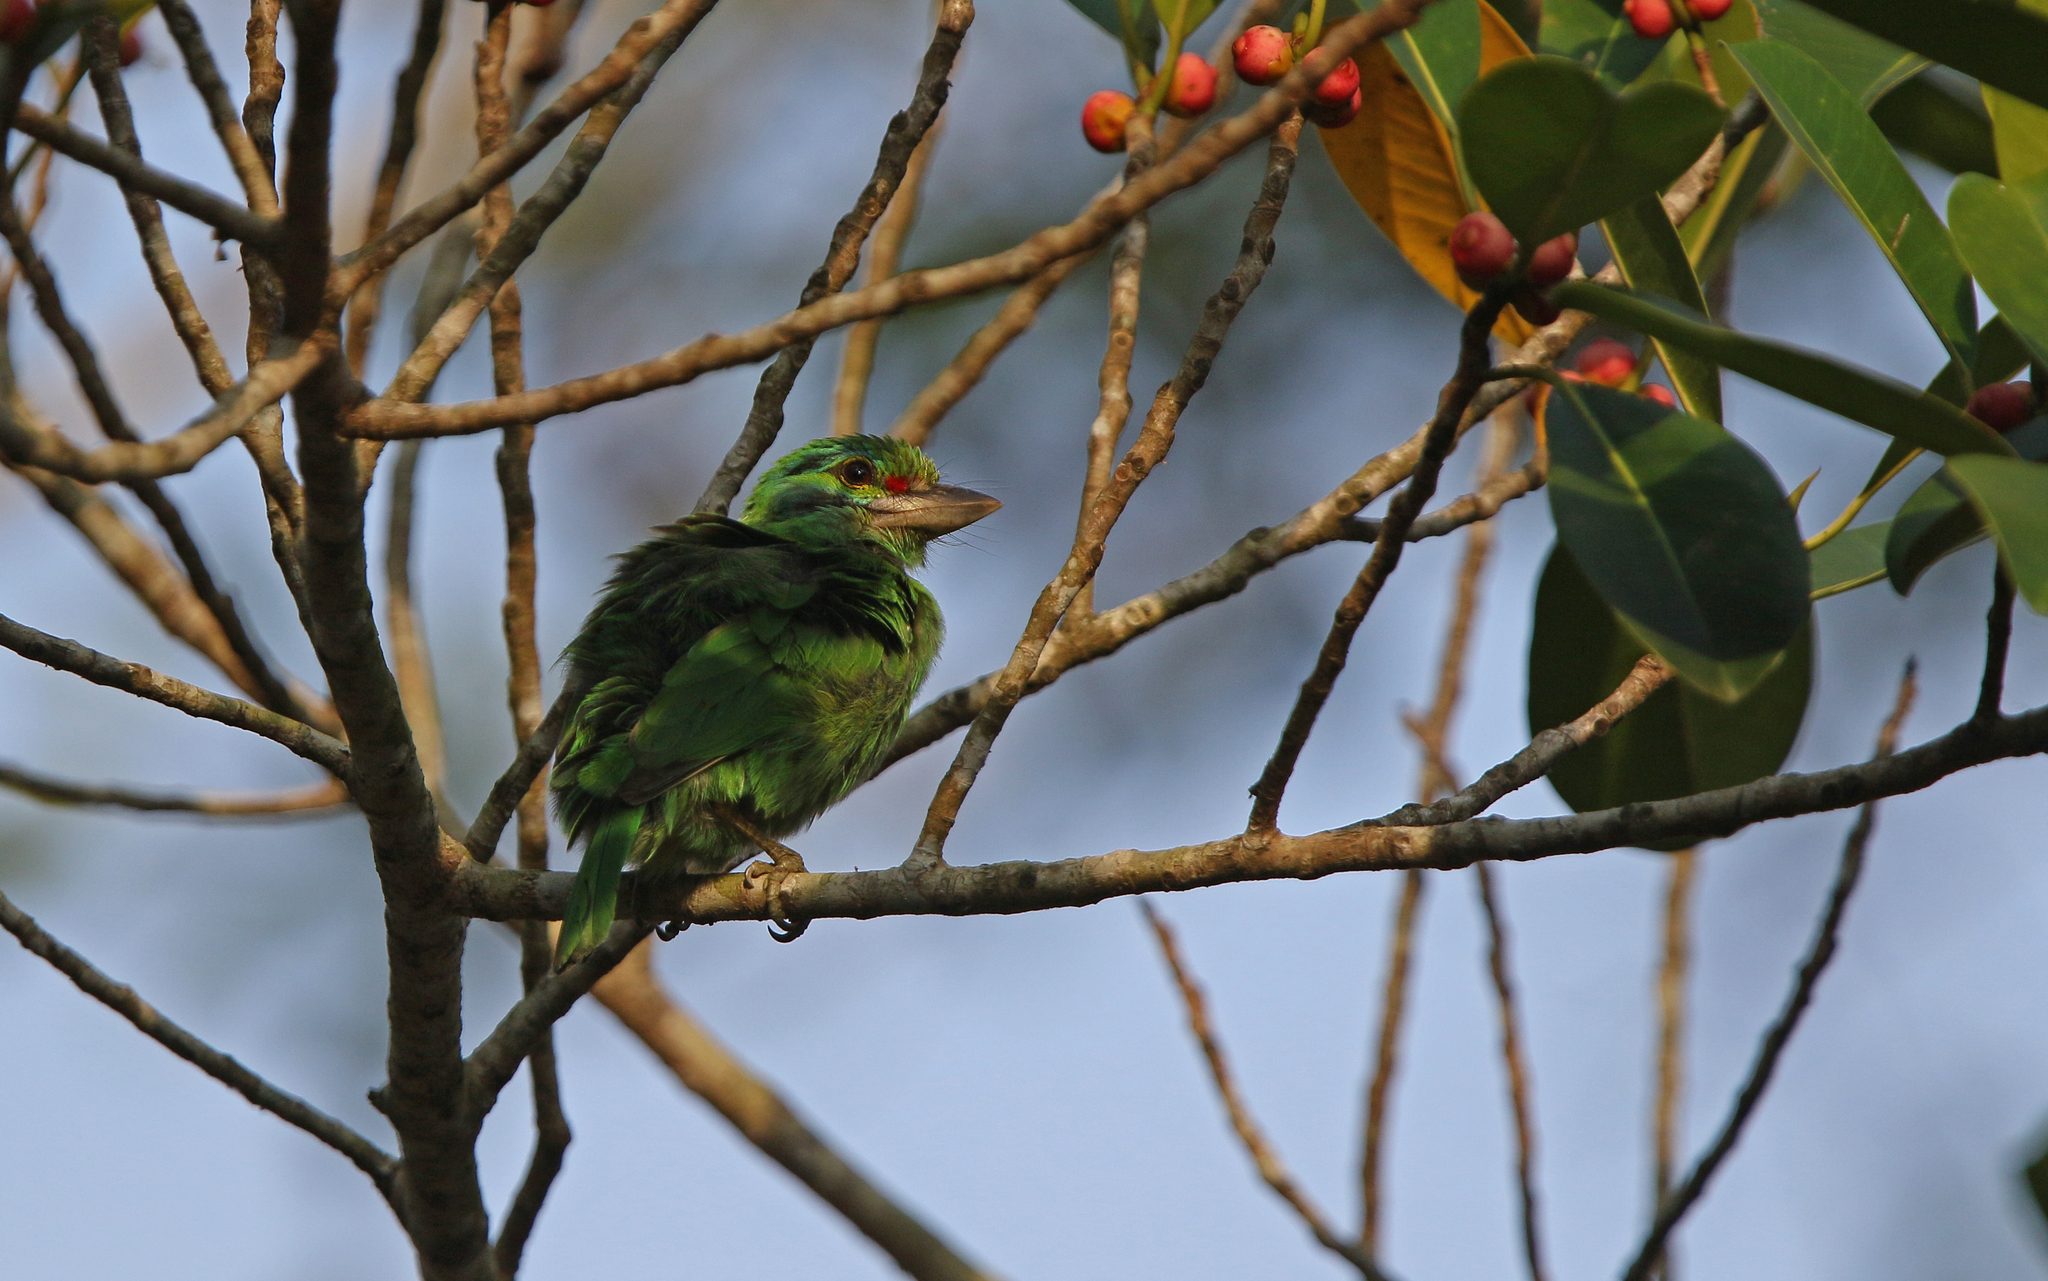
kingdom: Animalia
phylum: Chordata
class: Aves
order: Piciformes
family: Megalaimidae
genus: Psilopogon
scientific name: Psilopogon incognitus
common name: Moustached barbet
